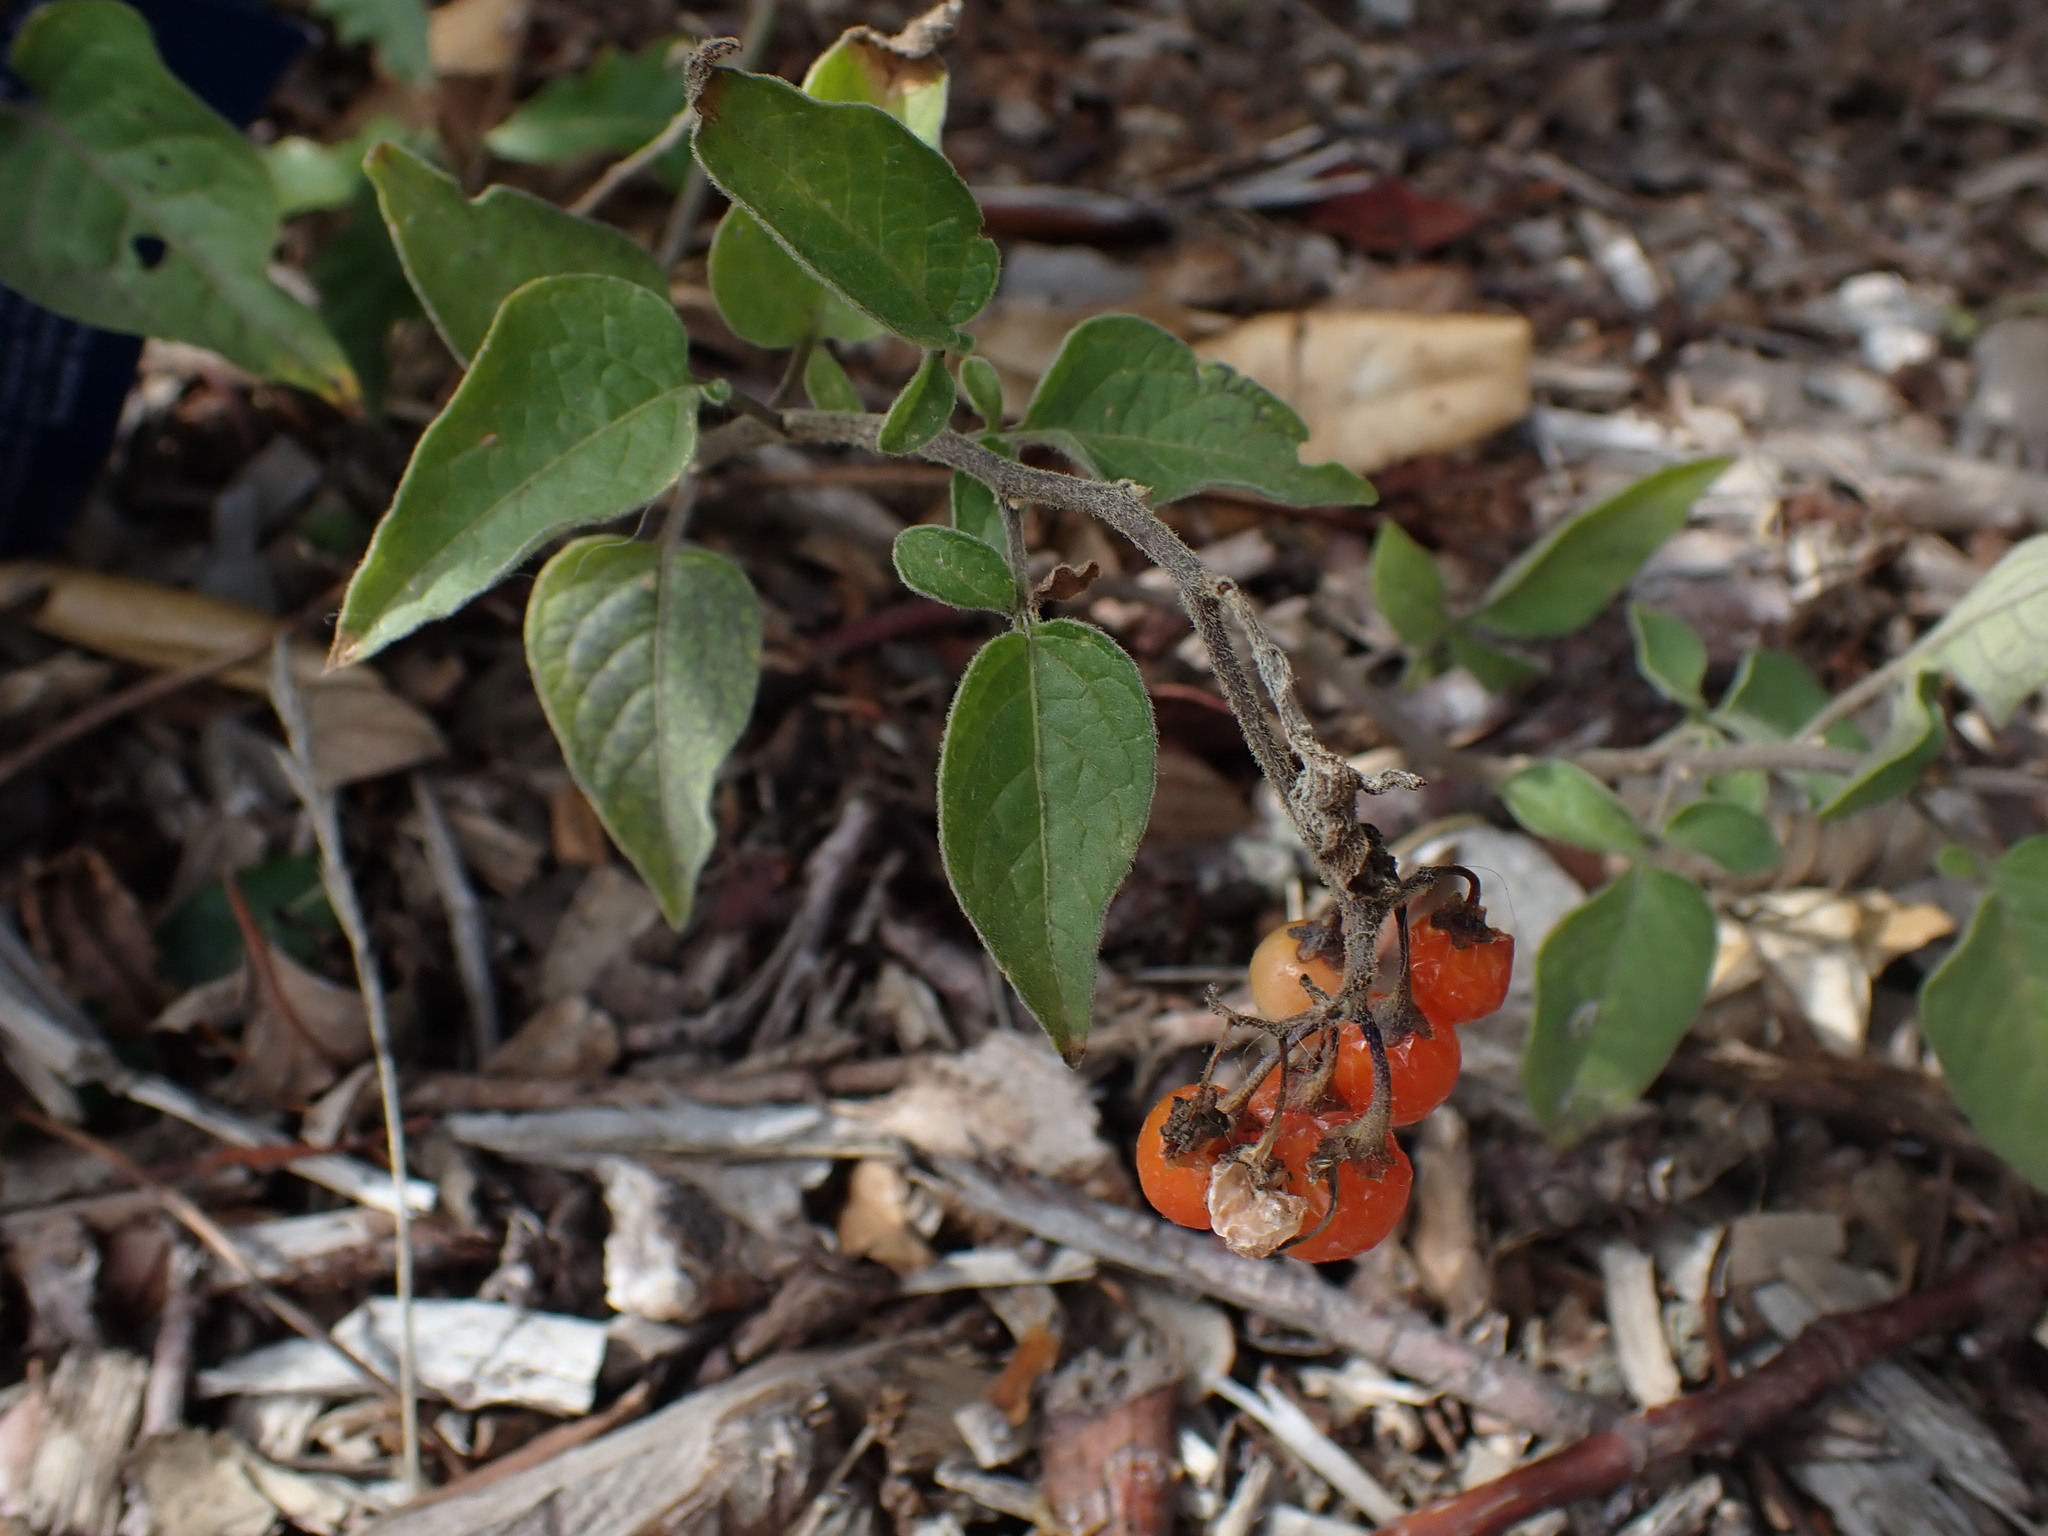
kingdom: Plantae
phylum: Tracheophyta
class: Magnoliopsida
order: Solanales
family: Solanaceae
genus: Solanum
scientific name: Solanum dulcamara
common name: Climbing nightshade
